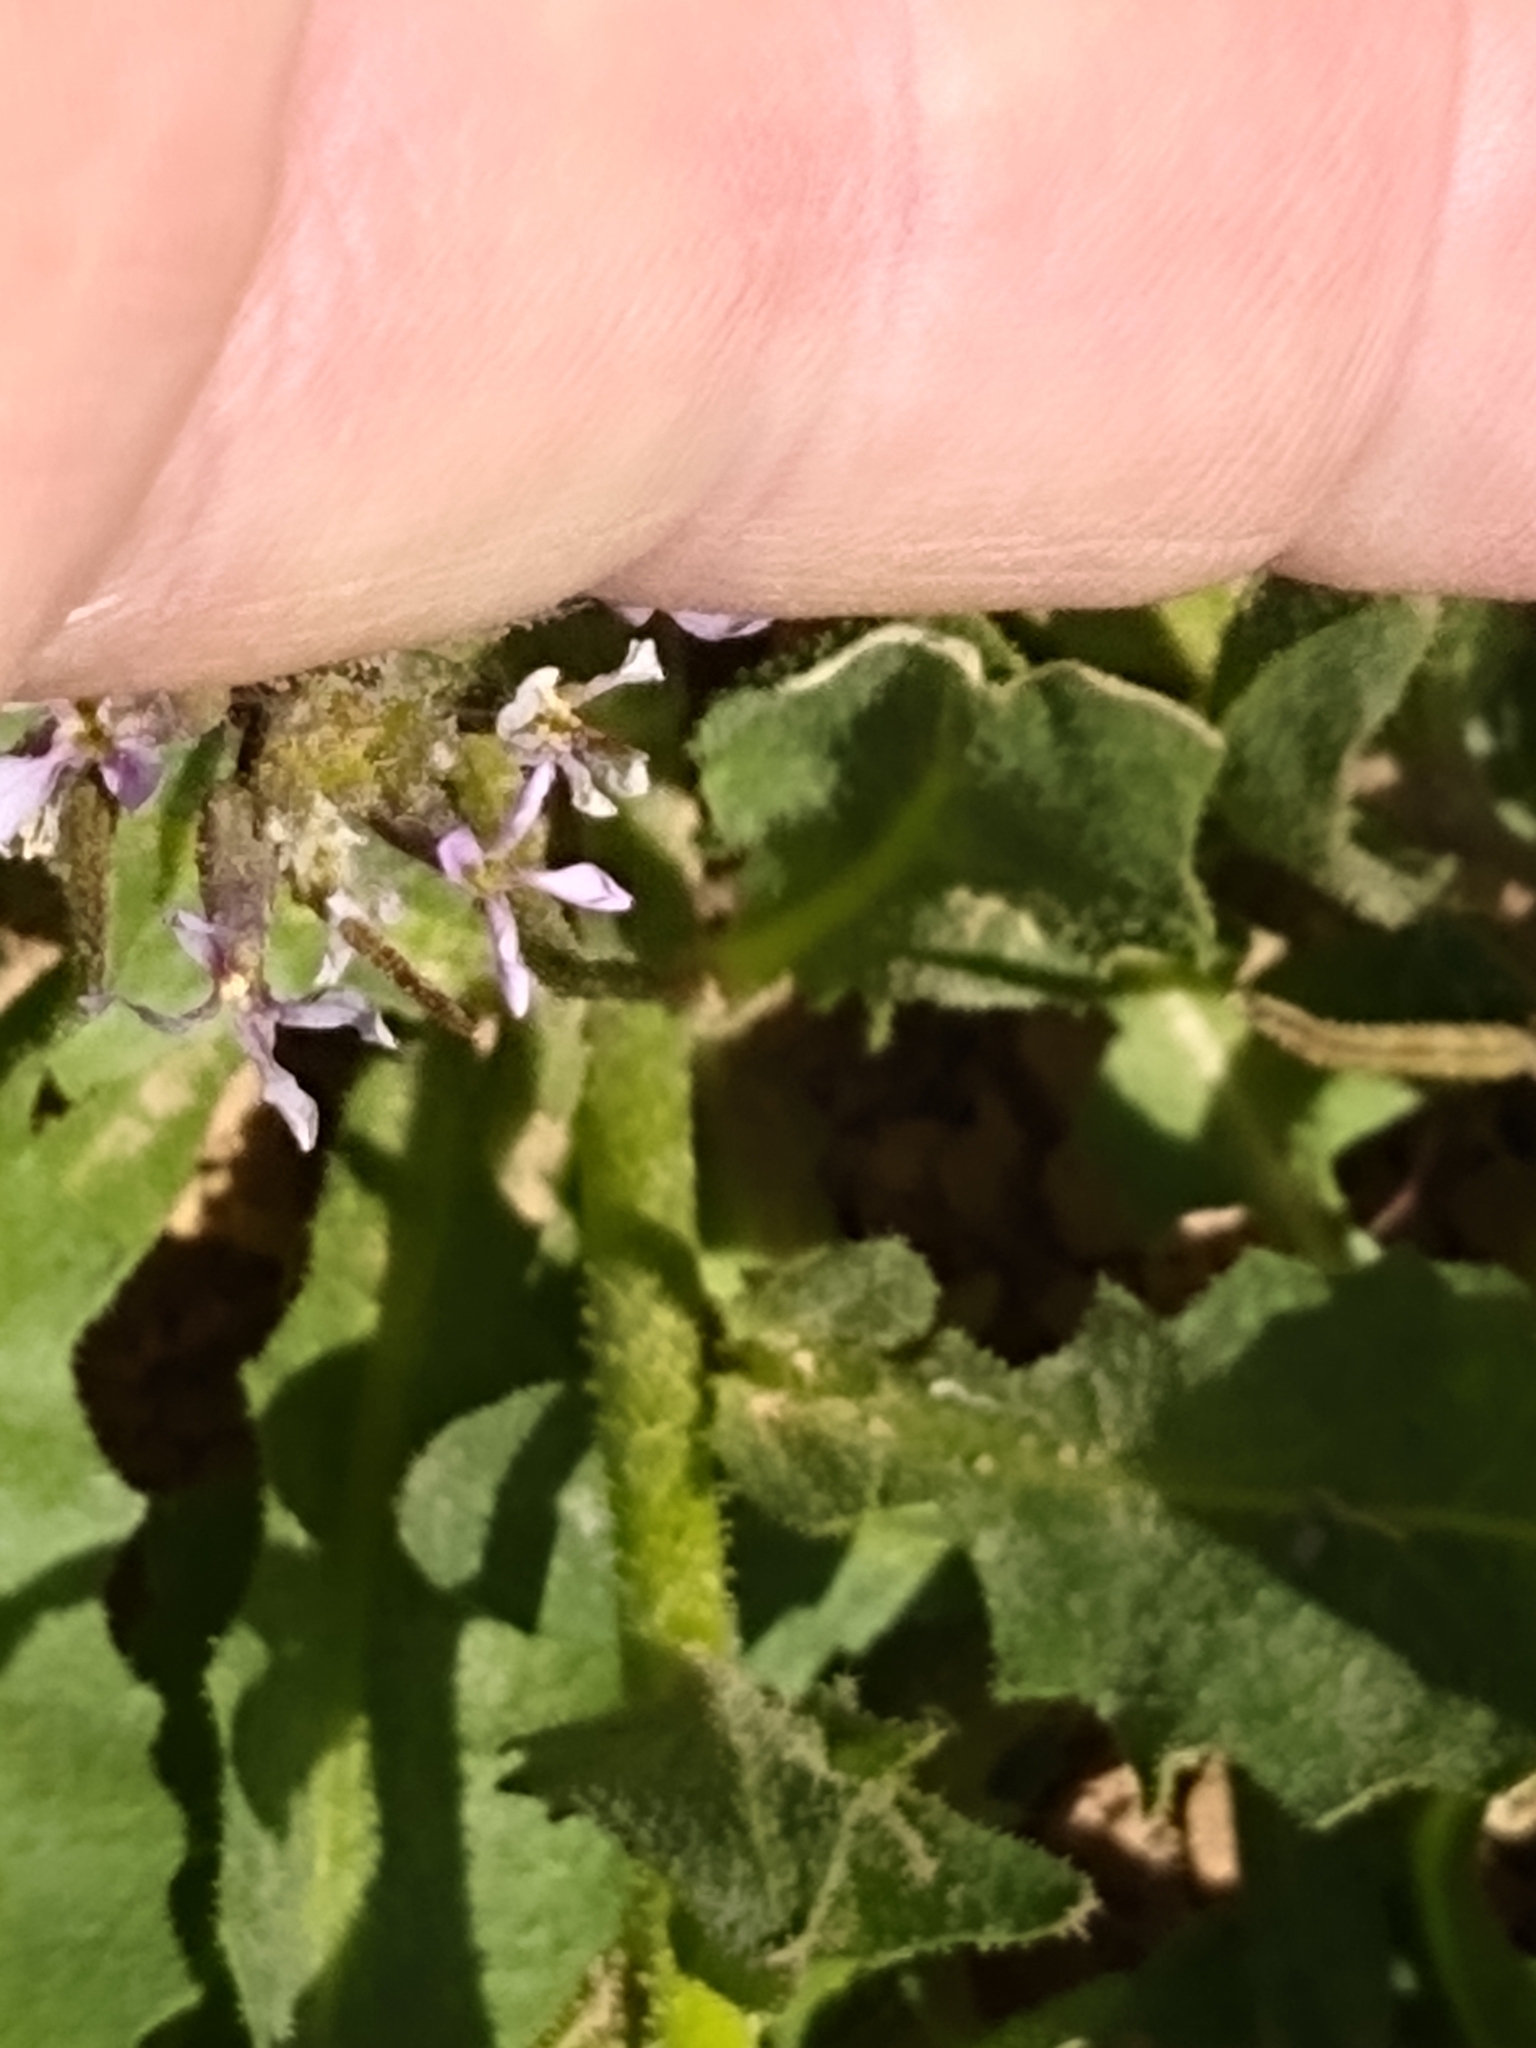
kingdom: Plantae
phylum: Tracheophyta
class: Magnoliopsida
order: Brassicales
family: Brassicaceae
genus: Chorispora
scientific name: Chorispora tenella
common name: Crossflower
